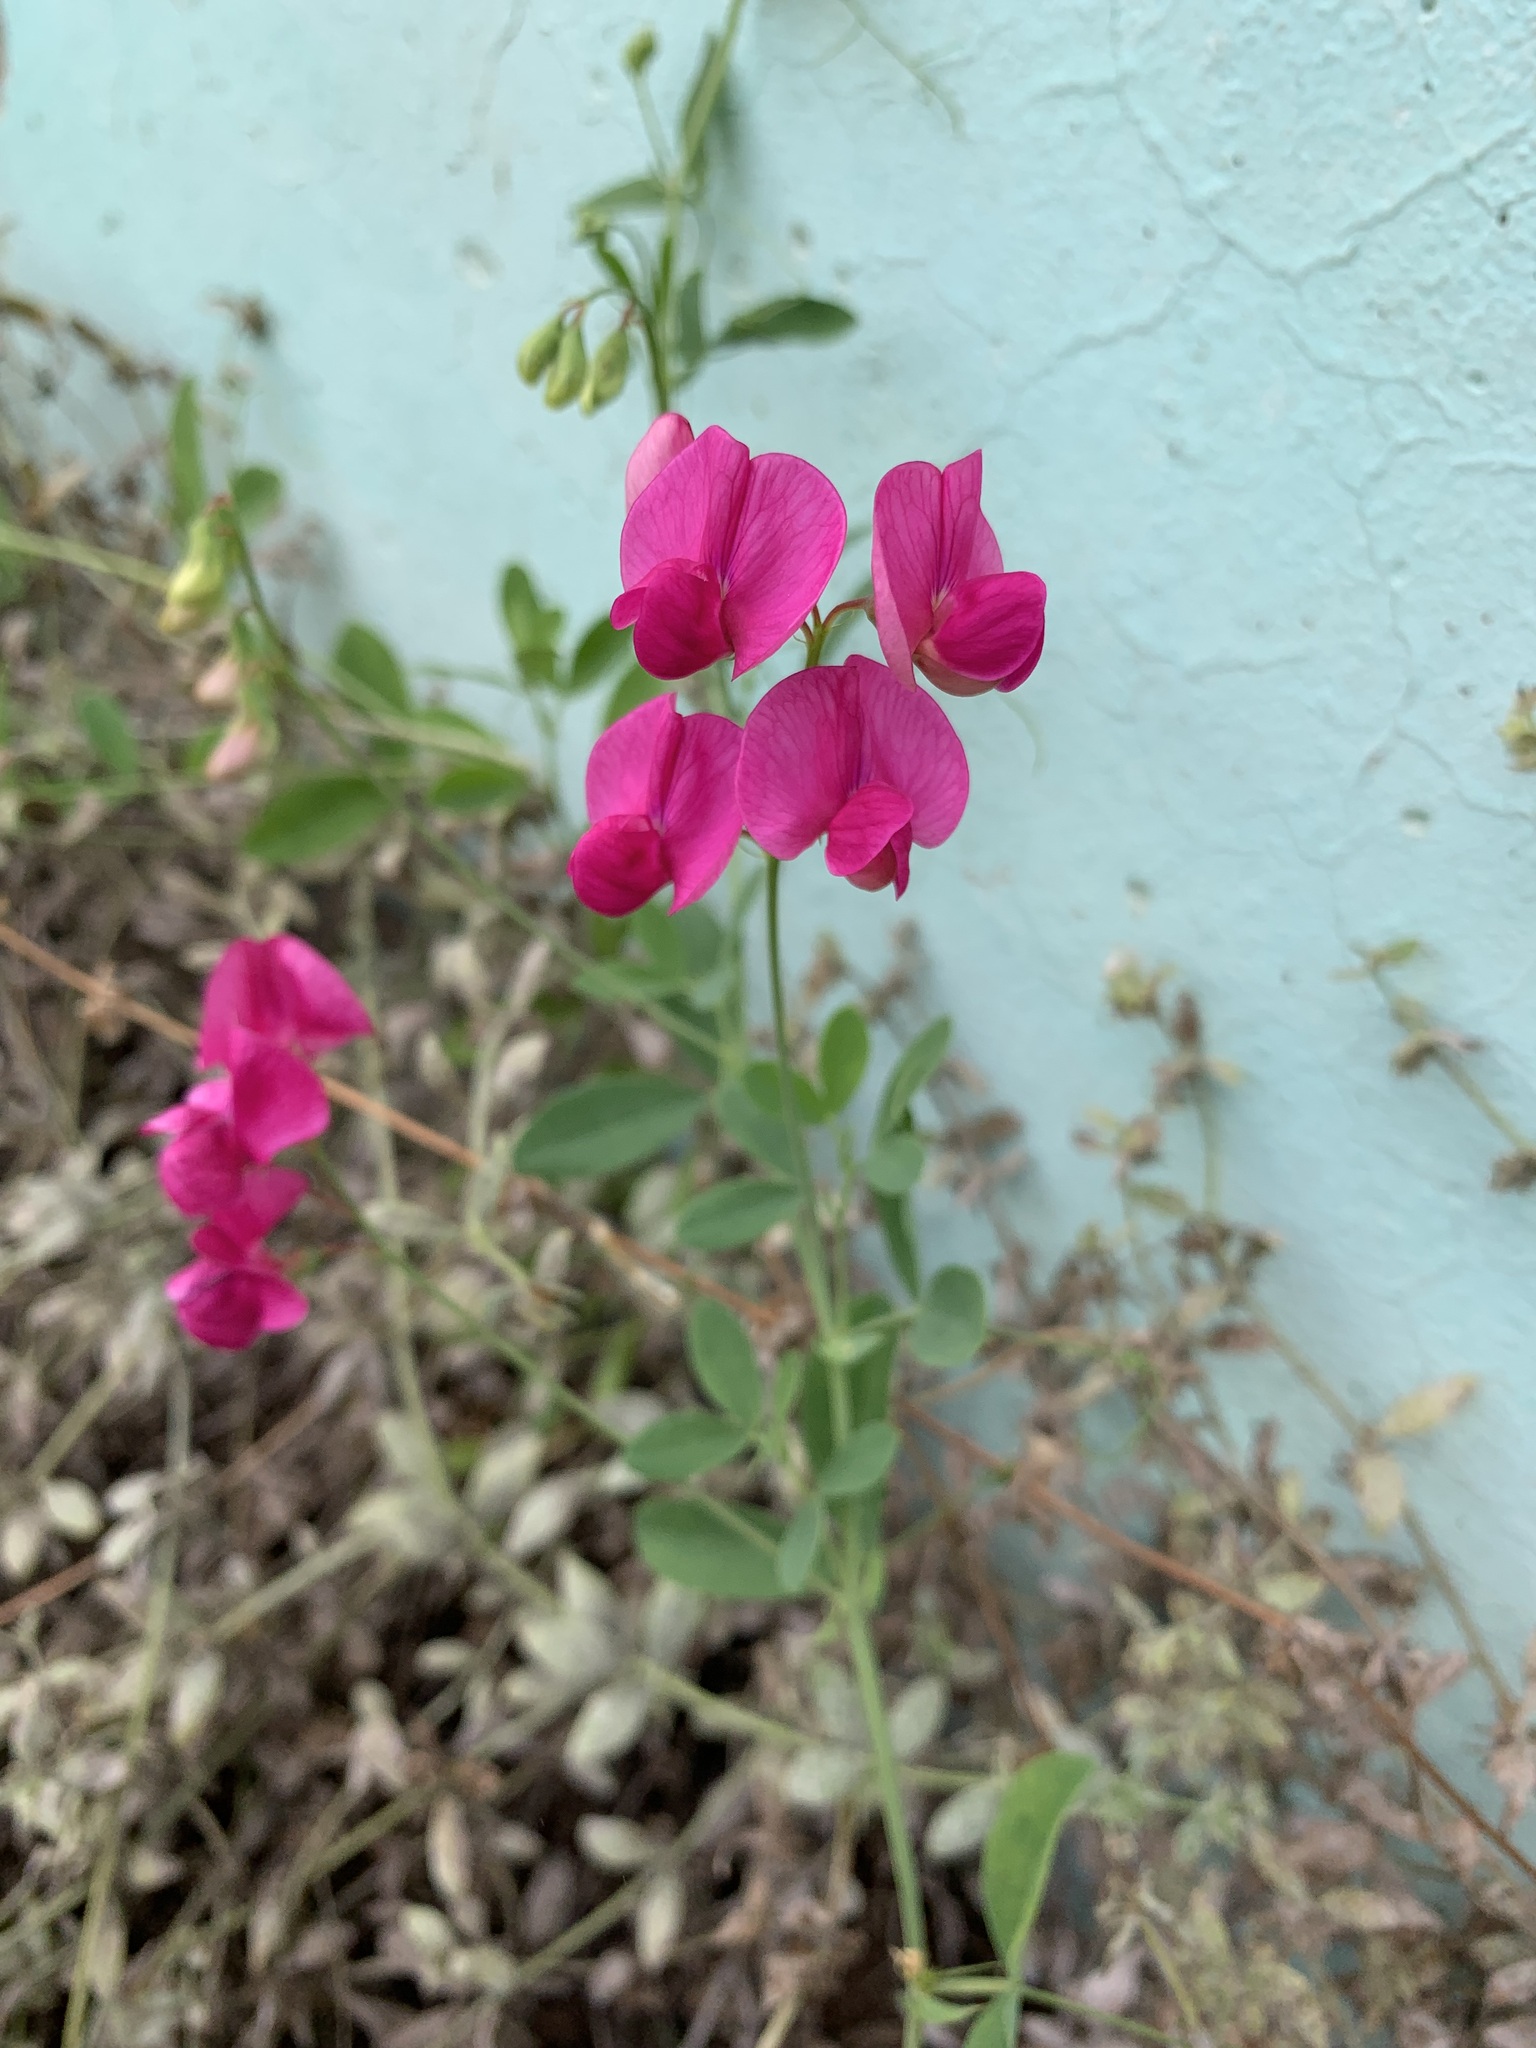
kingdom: Plantae
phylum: Tracheophyta
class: Magnoliopsida
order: Fabales
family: Fabaceae
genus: Lathyrus
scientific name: Lathyrus tuberosus
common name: Tuberous pea
